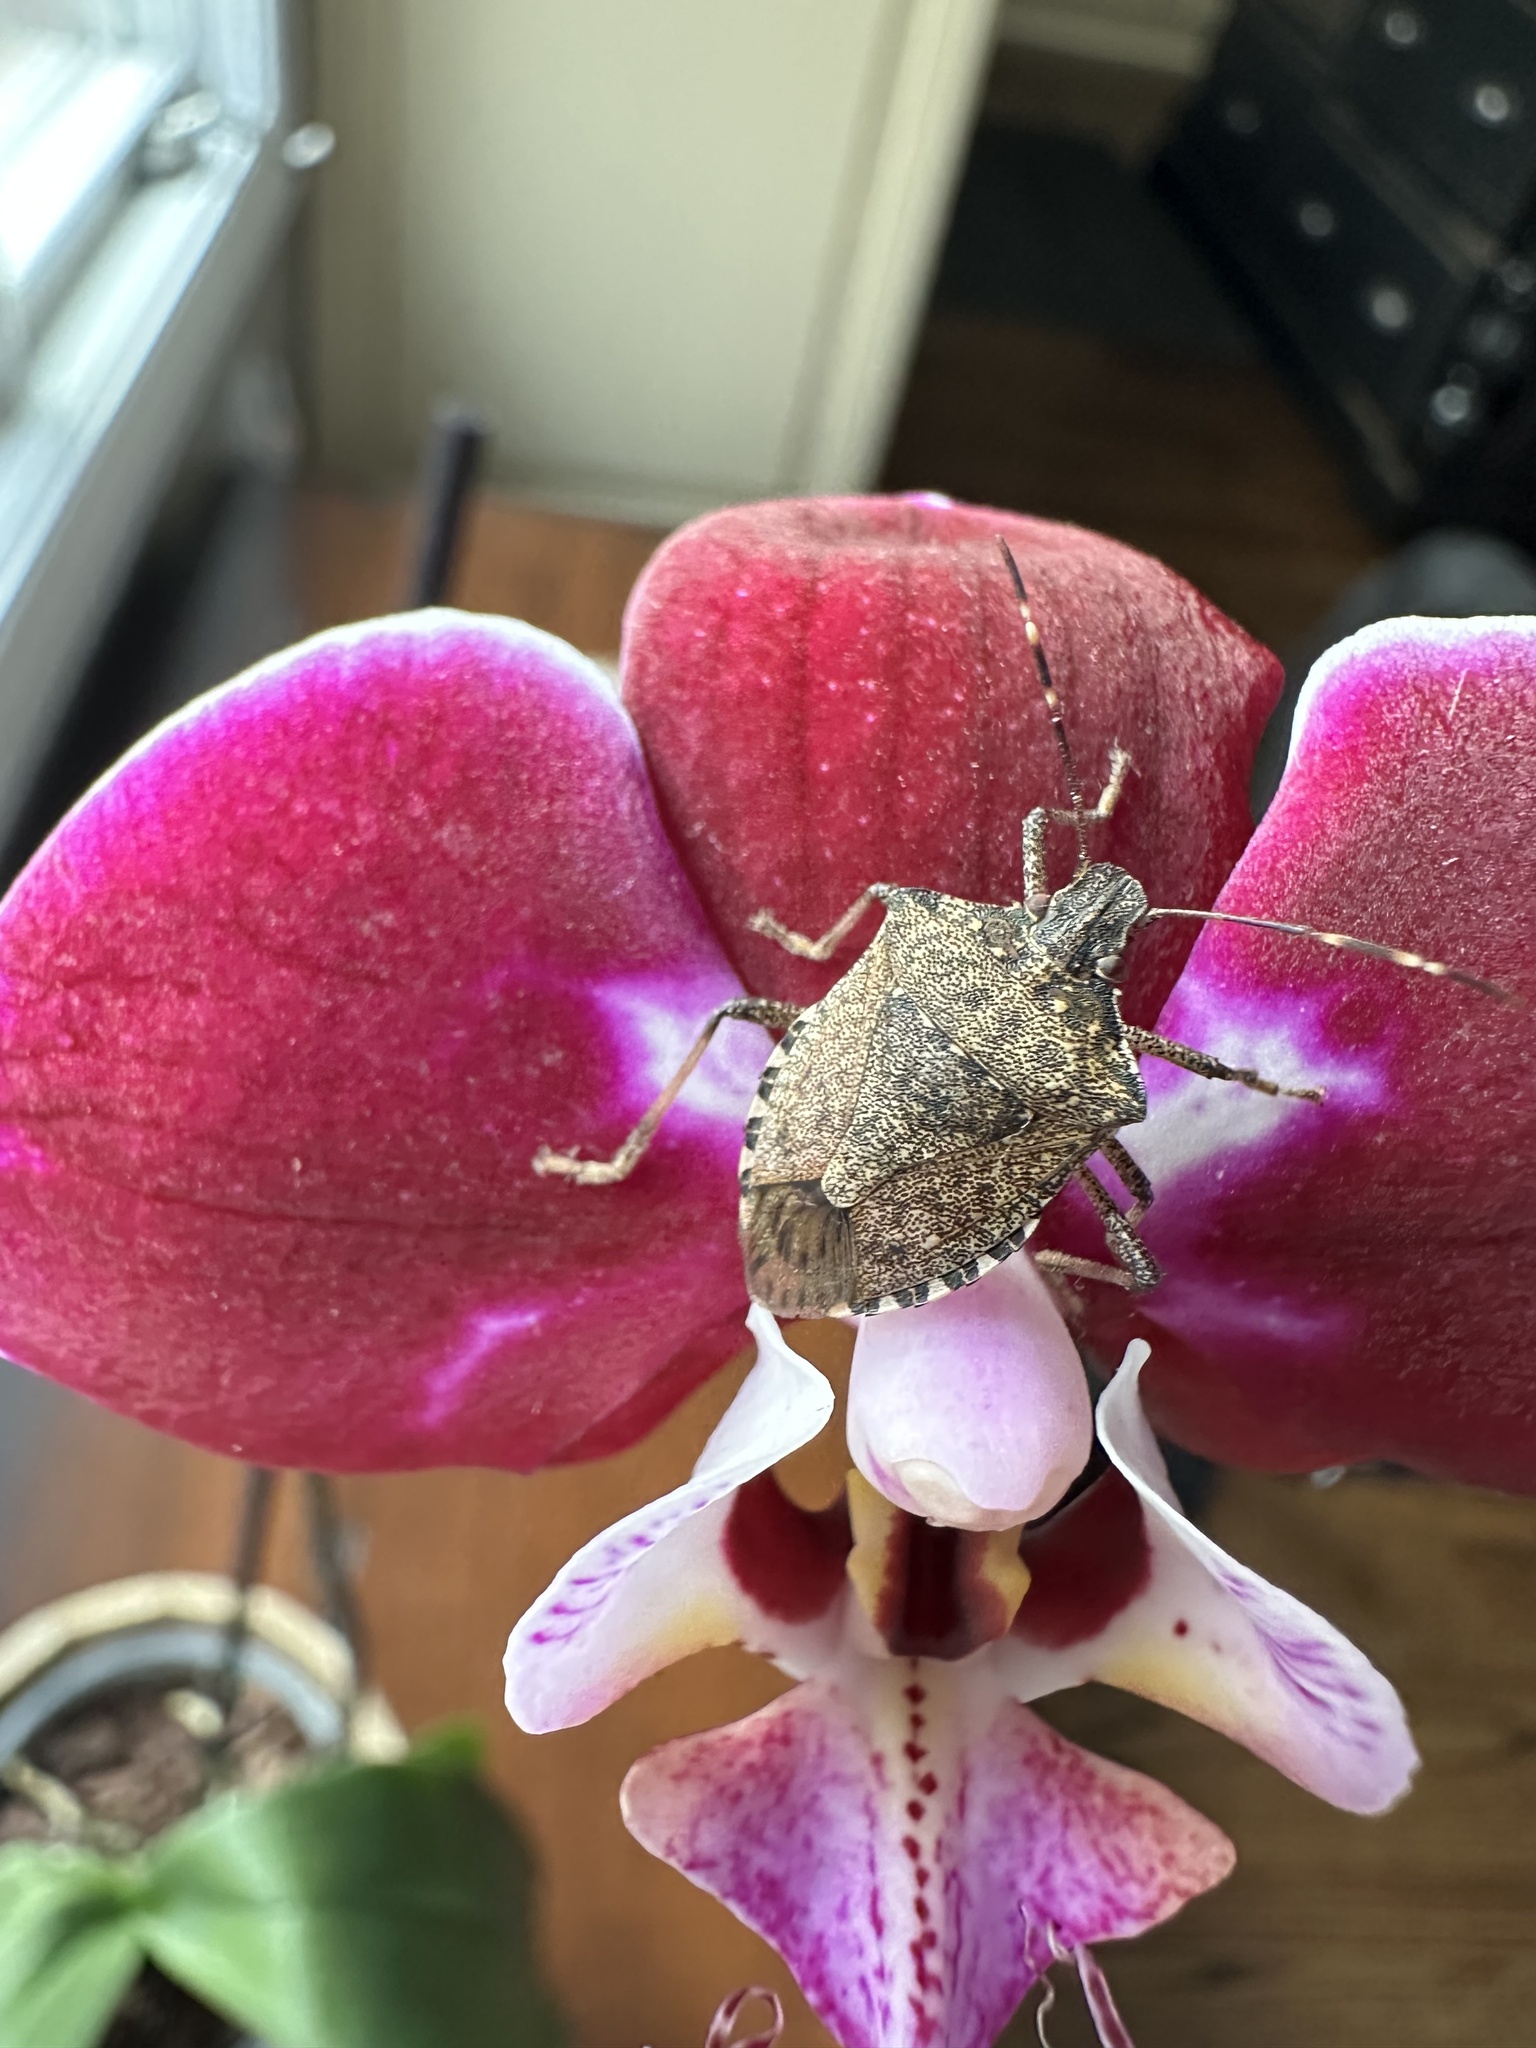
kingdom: Animalia
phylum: Arthropoda
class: Insecta
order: Hemiptera
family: Pentatomidae
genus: Halyomorpha
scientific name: Halyomorpha halys
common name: Brown marmorated stink bug
